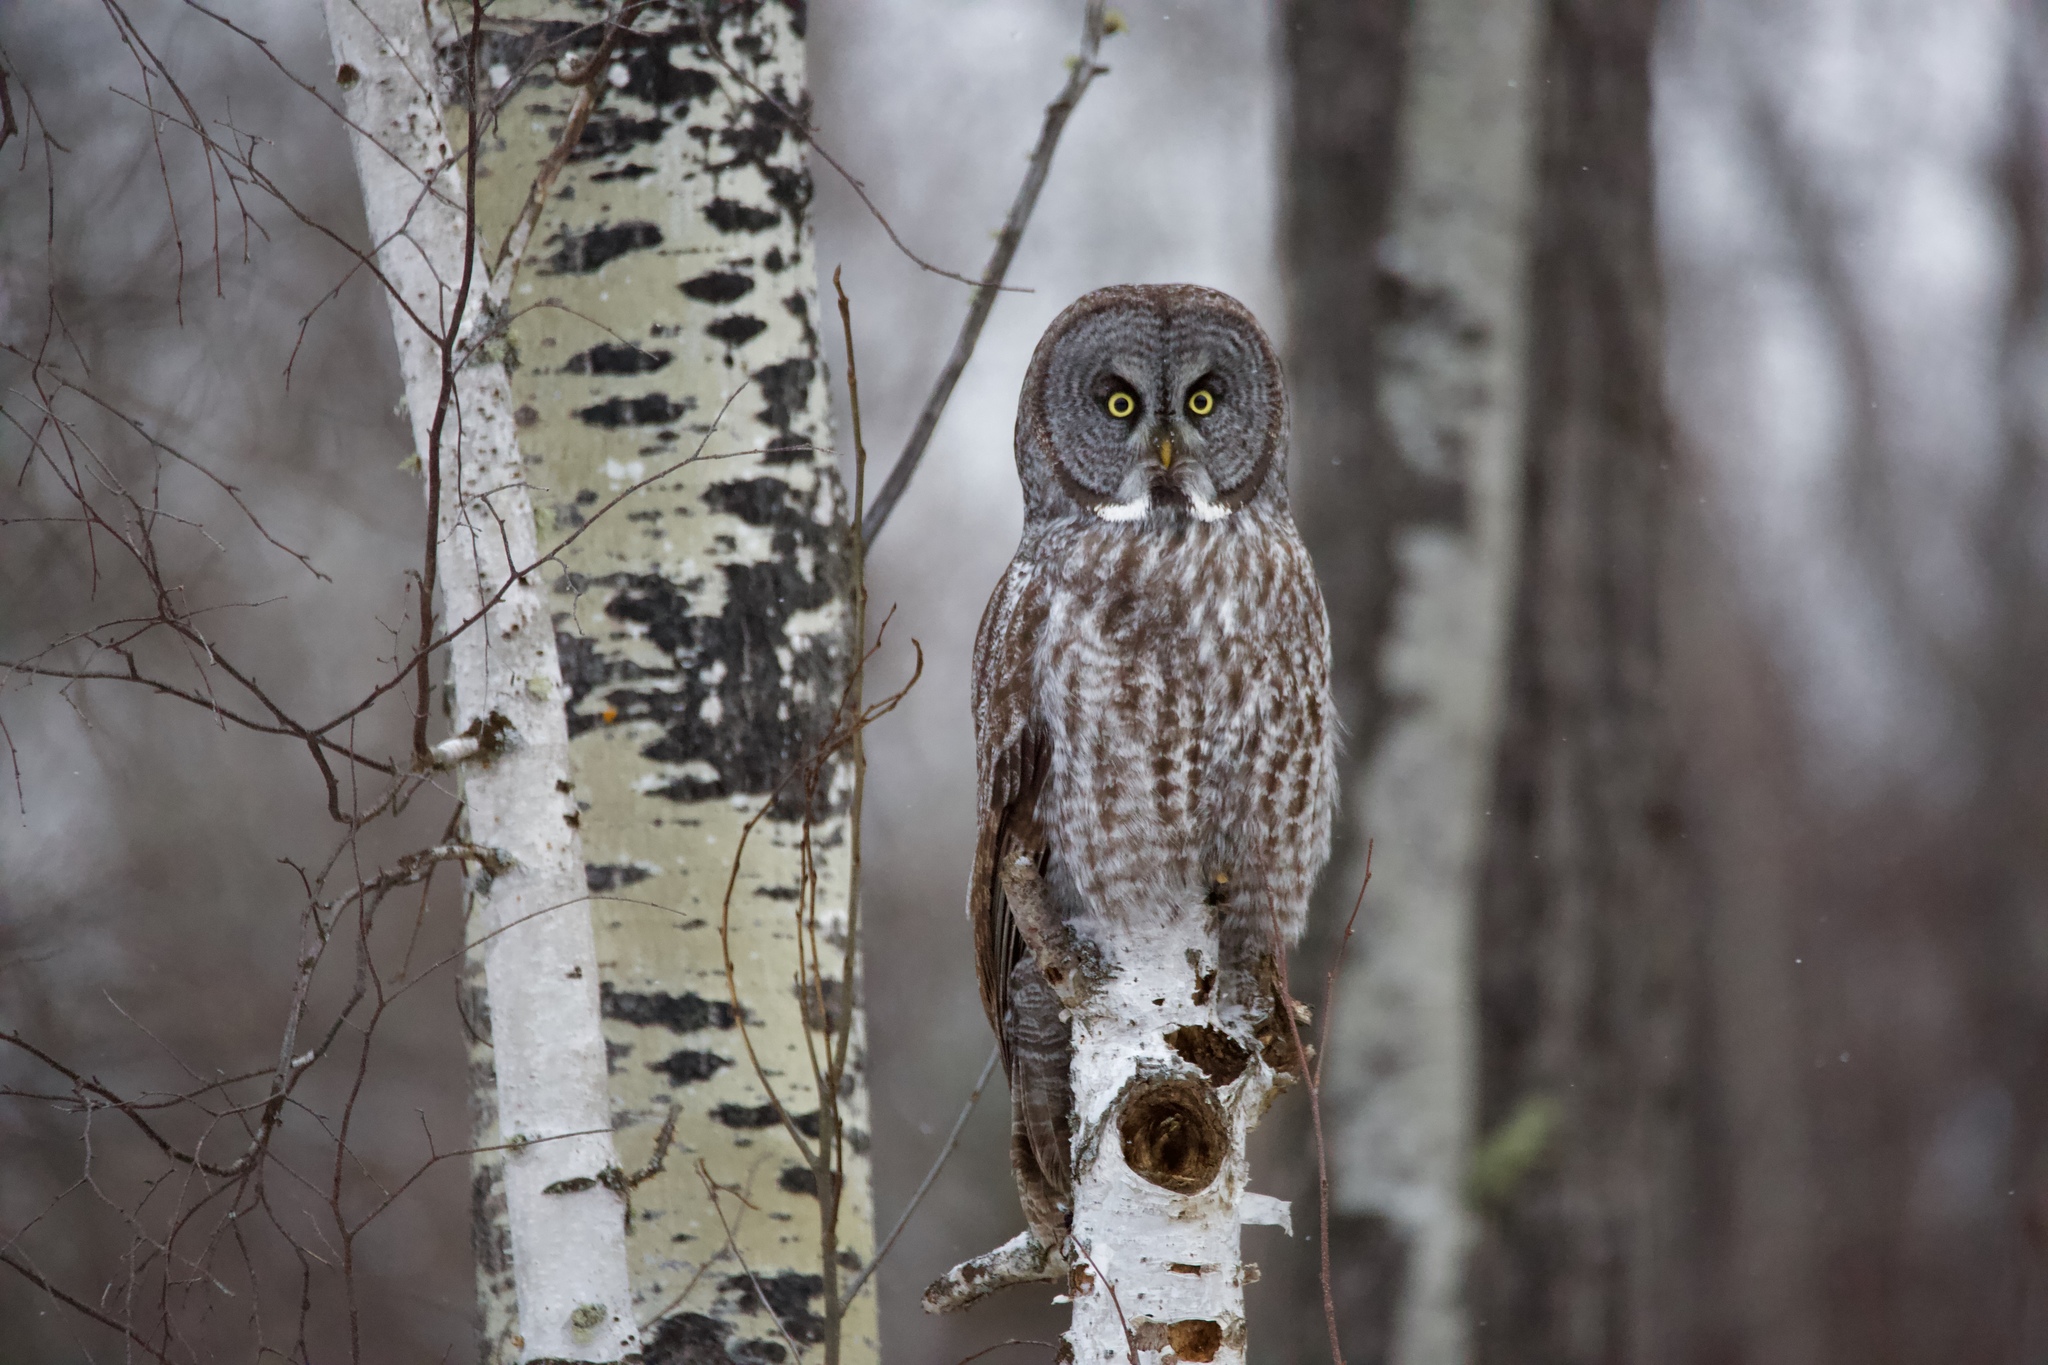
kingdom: Animalia
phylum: Chordata
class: Aves
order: Strigiformes
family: Strigidae
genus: Strix
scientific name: Strix nebulosa
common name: Great grey owl
